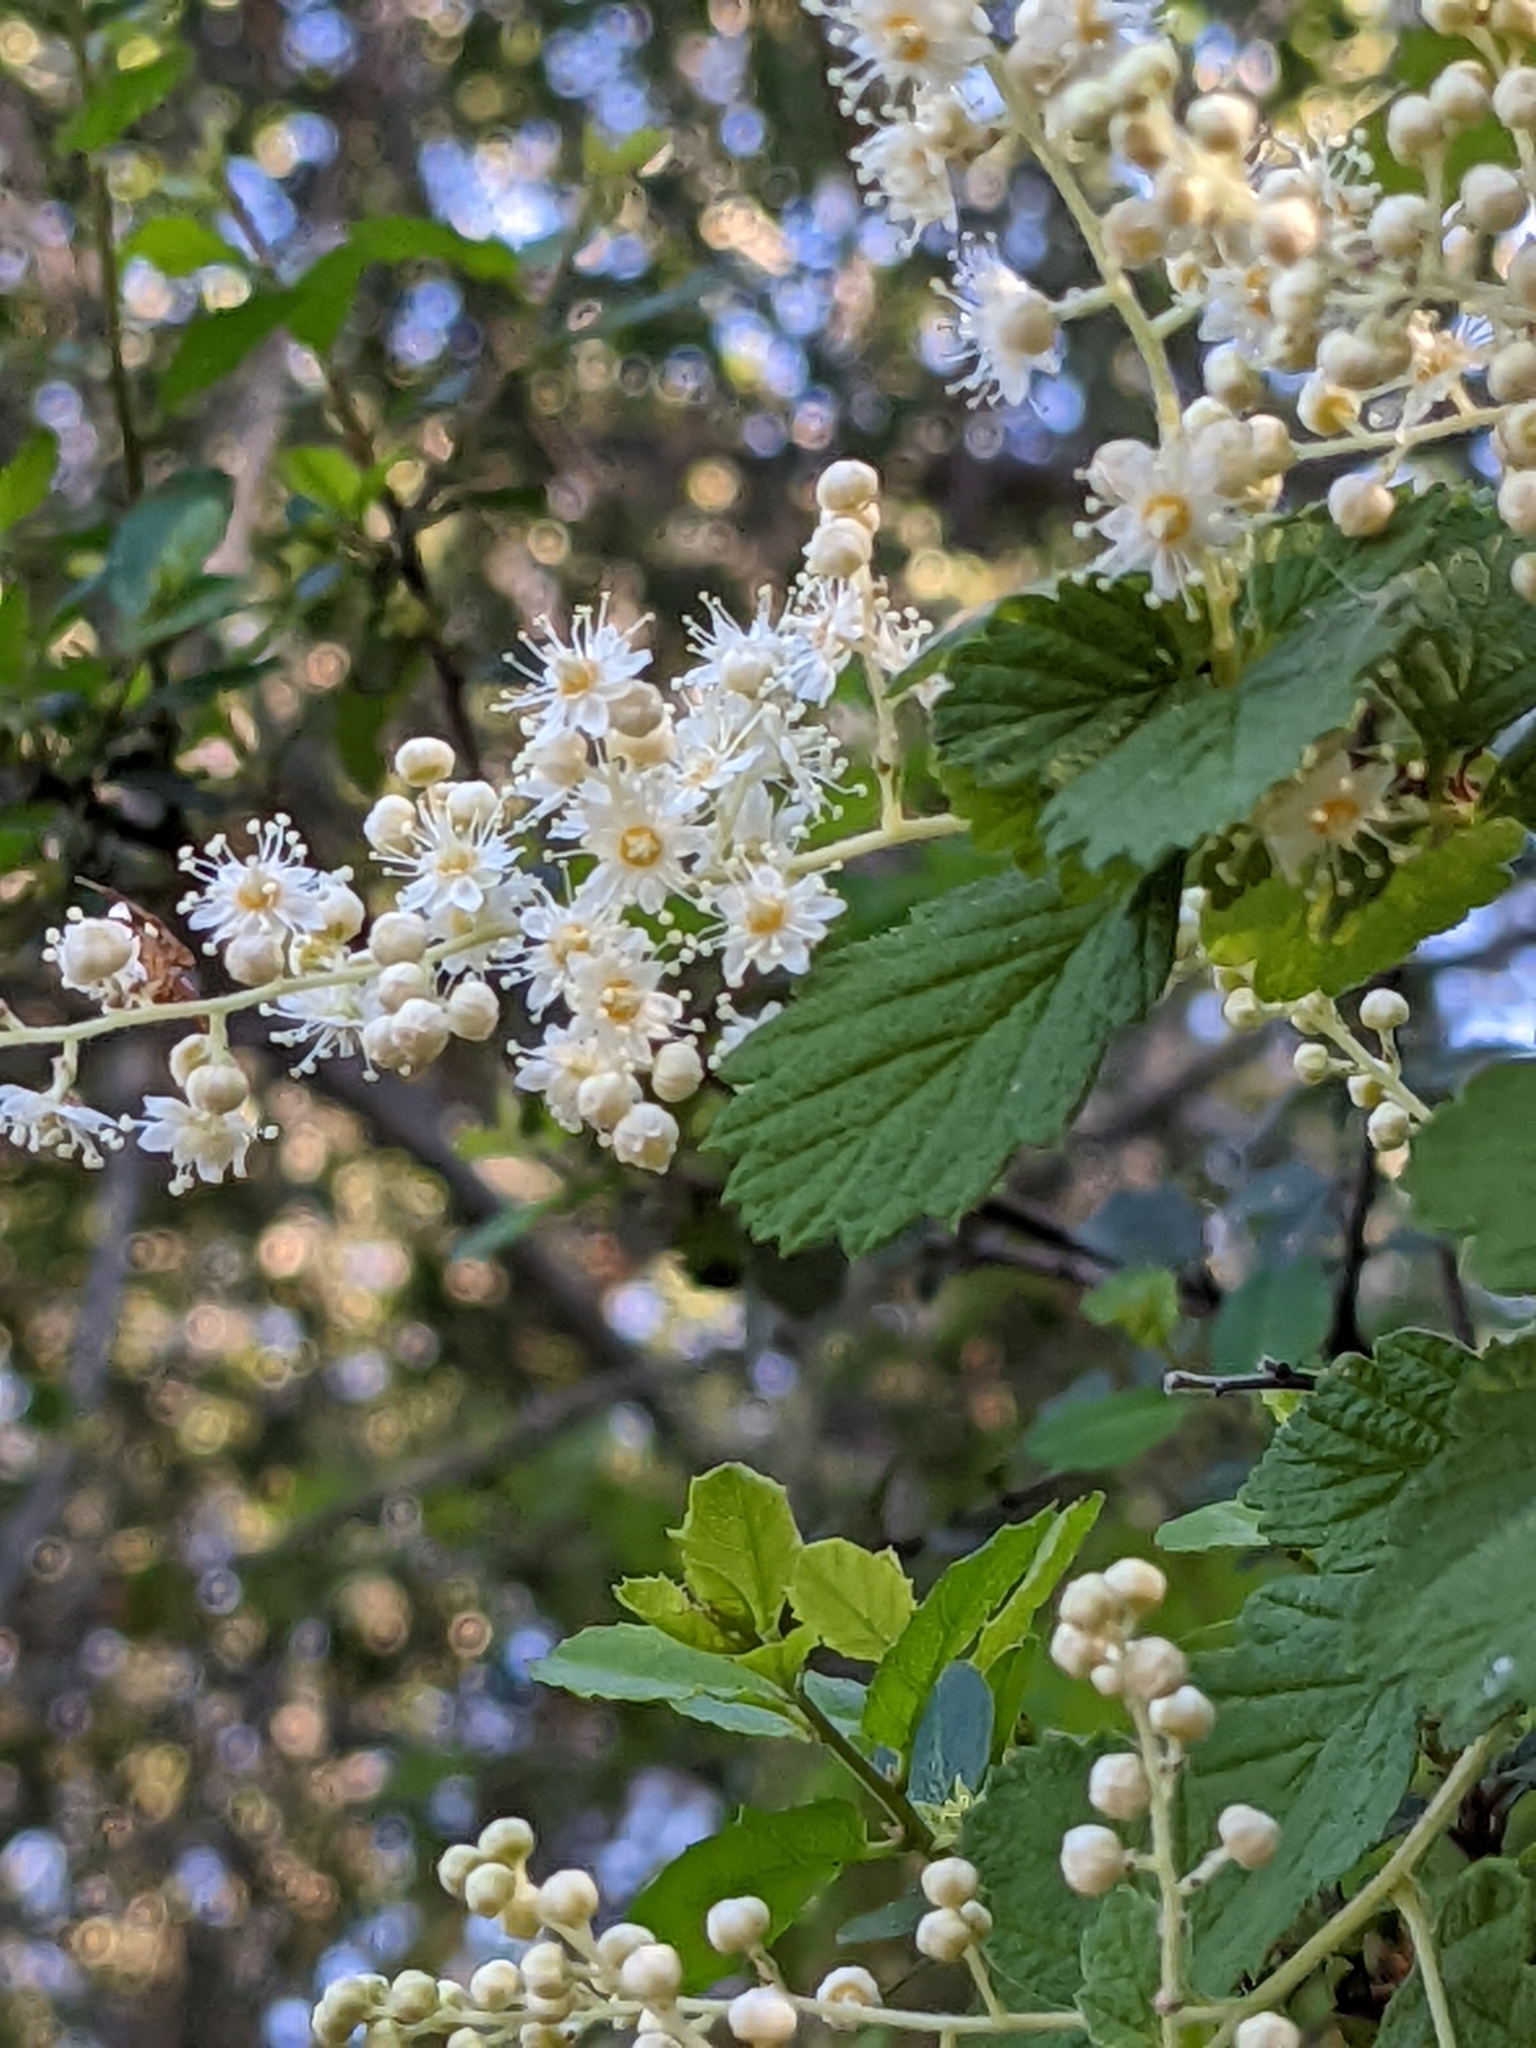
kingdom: Plantae
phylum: Tracheophyta
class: Magnoliopsida
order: Rosales
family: Rosaceae
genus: Holodiscus
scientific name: Holodiscus discolor
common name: Oceanspray
